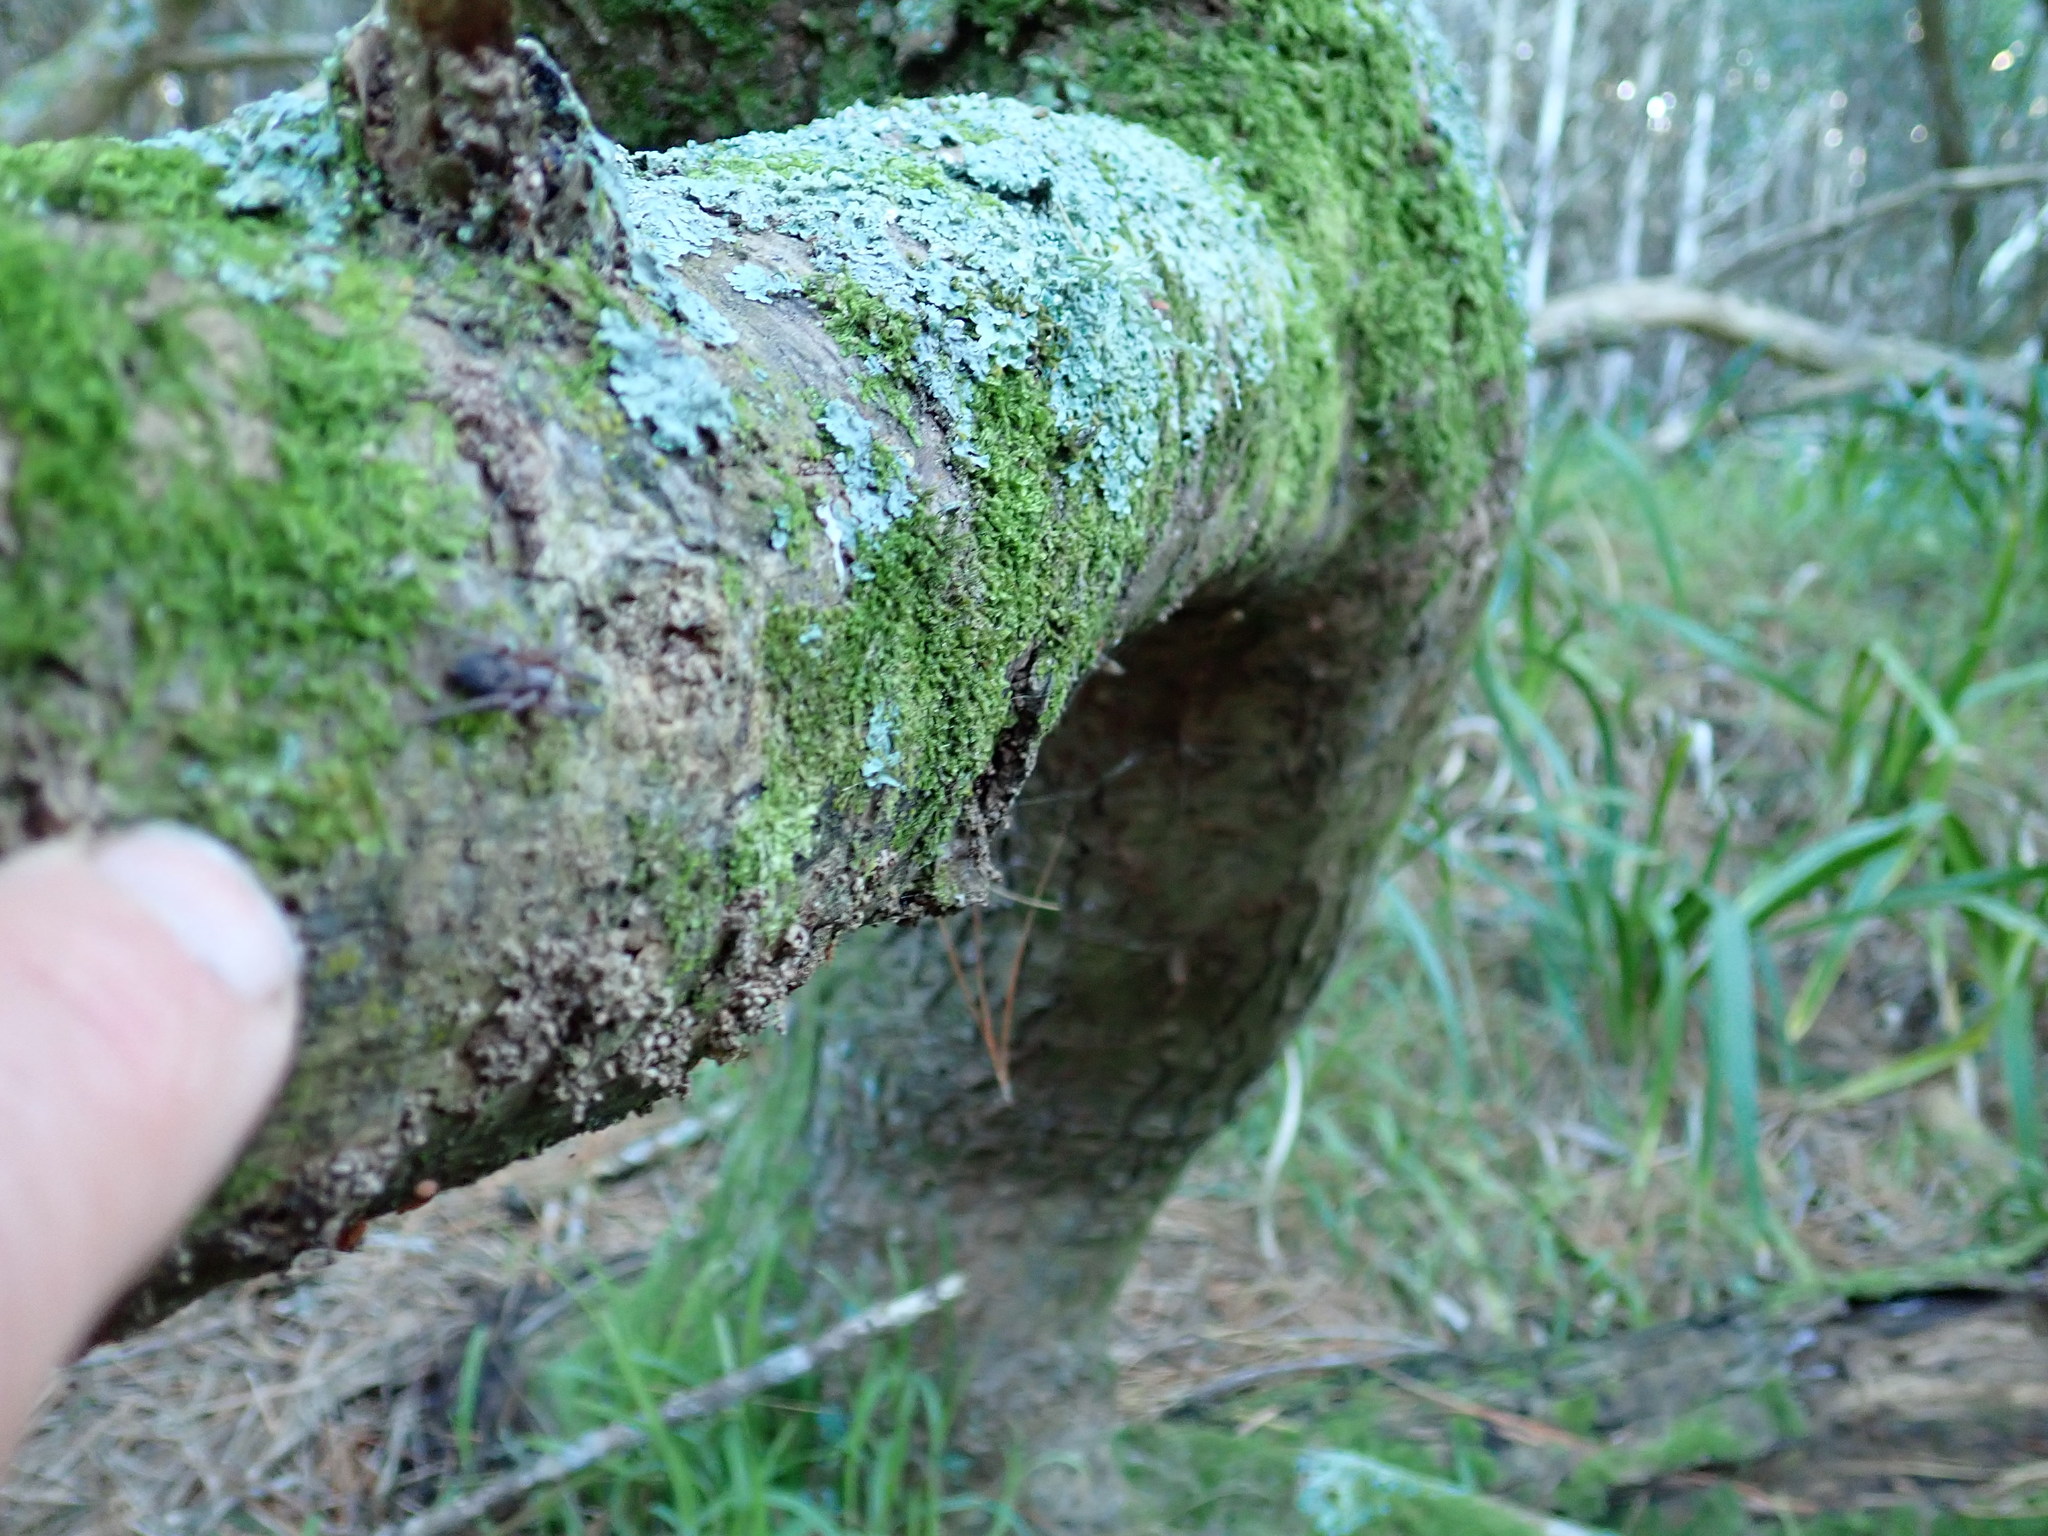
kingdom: Animalia
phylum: Arthropoda
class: Arachnida
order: Araneae
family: Gnaphosidae
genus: Intruda
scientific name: Intruda signata
